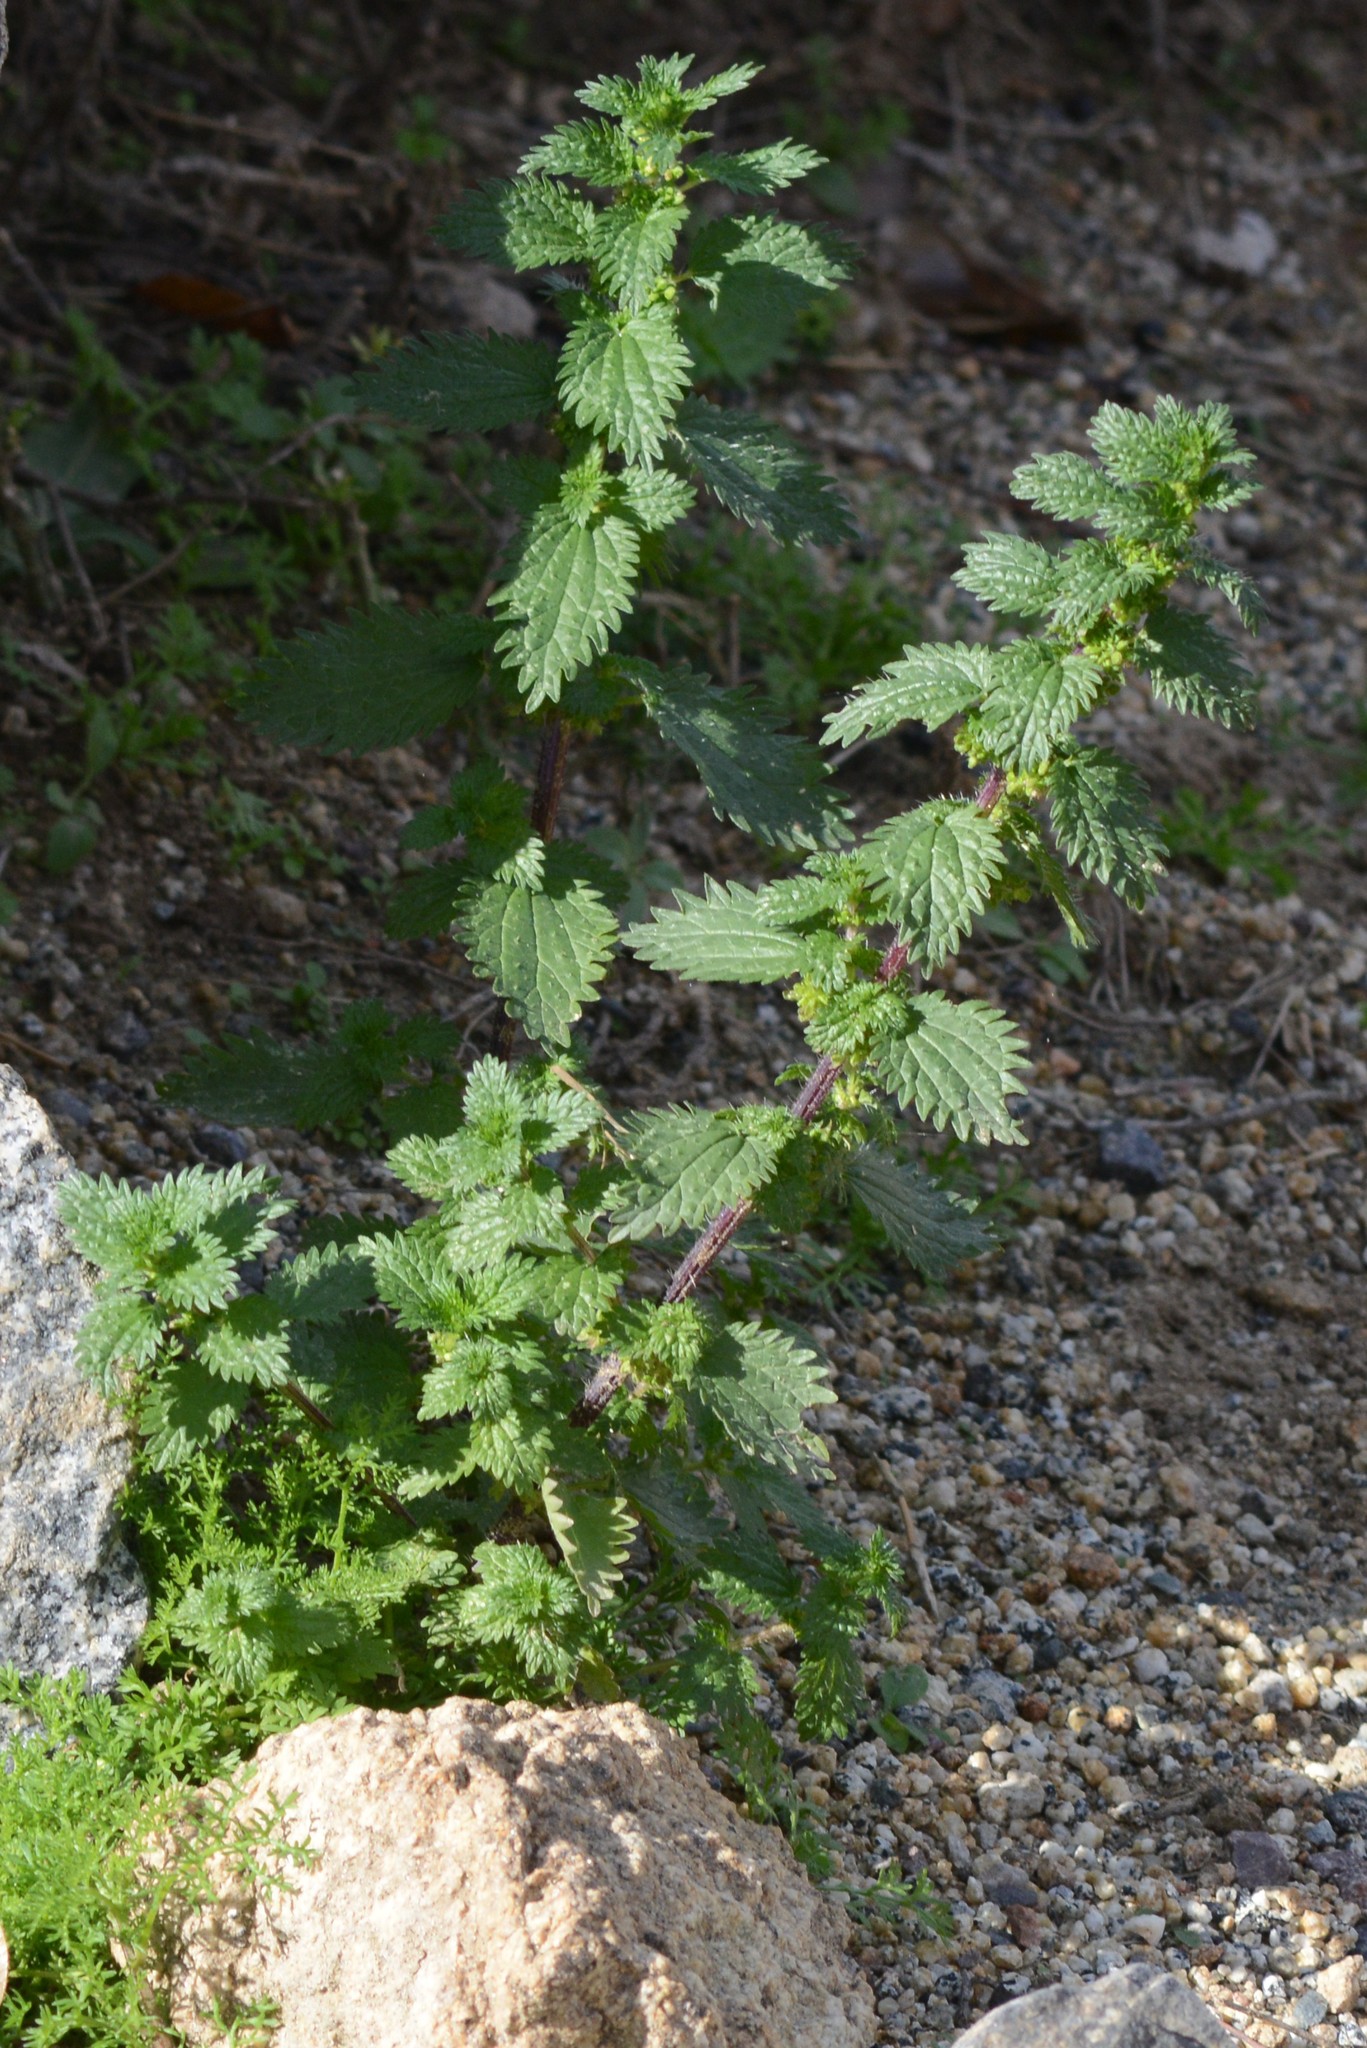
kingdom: Plantae
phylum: Tracheophyta
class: Magnoliopsida
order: Rosales
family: Urticaceae
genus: Urtica
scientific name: Urtica urens
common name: Dwarf nettle
